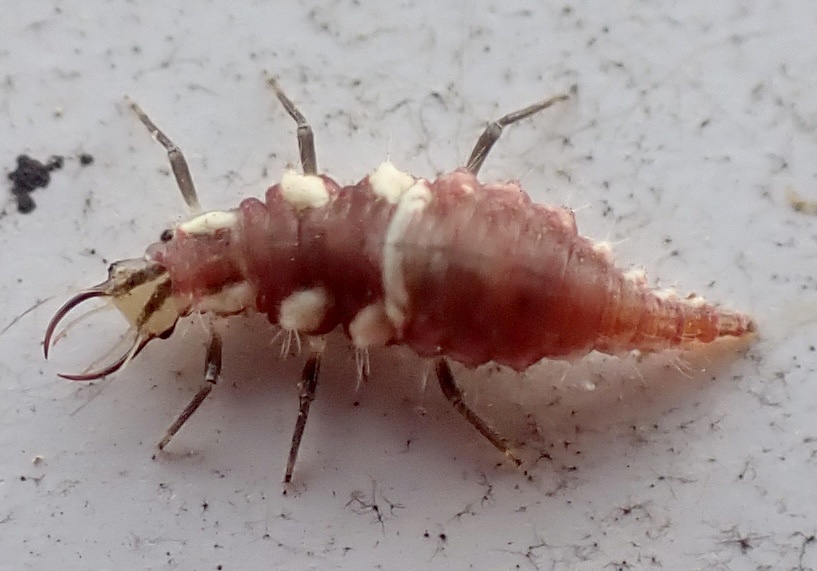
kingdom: Animalia
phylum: Arthropoda
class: Insecta
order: Neuroptera
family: Chrysopidae
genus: Chrysoperla
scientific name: Chrysoperla rufilabris
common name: Red-lipped green lacewing
